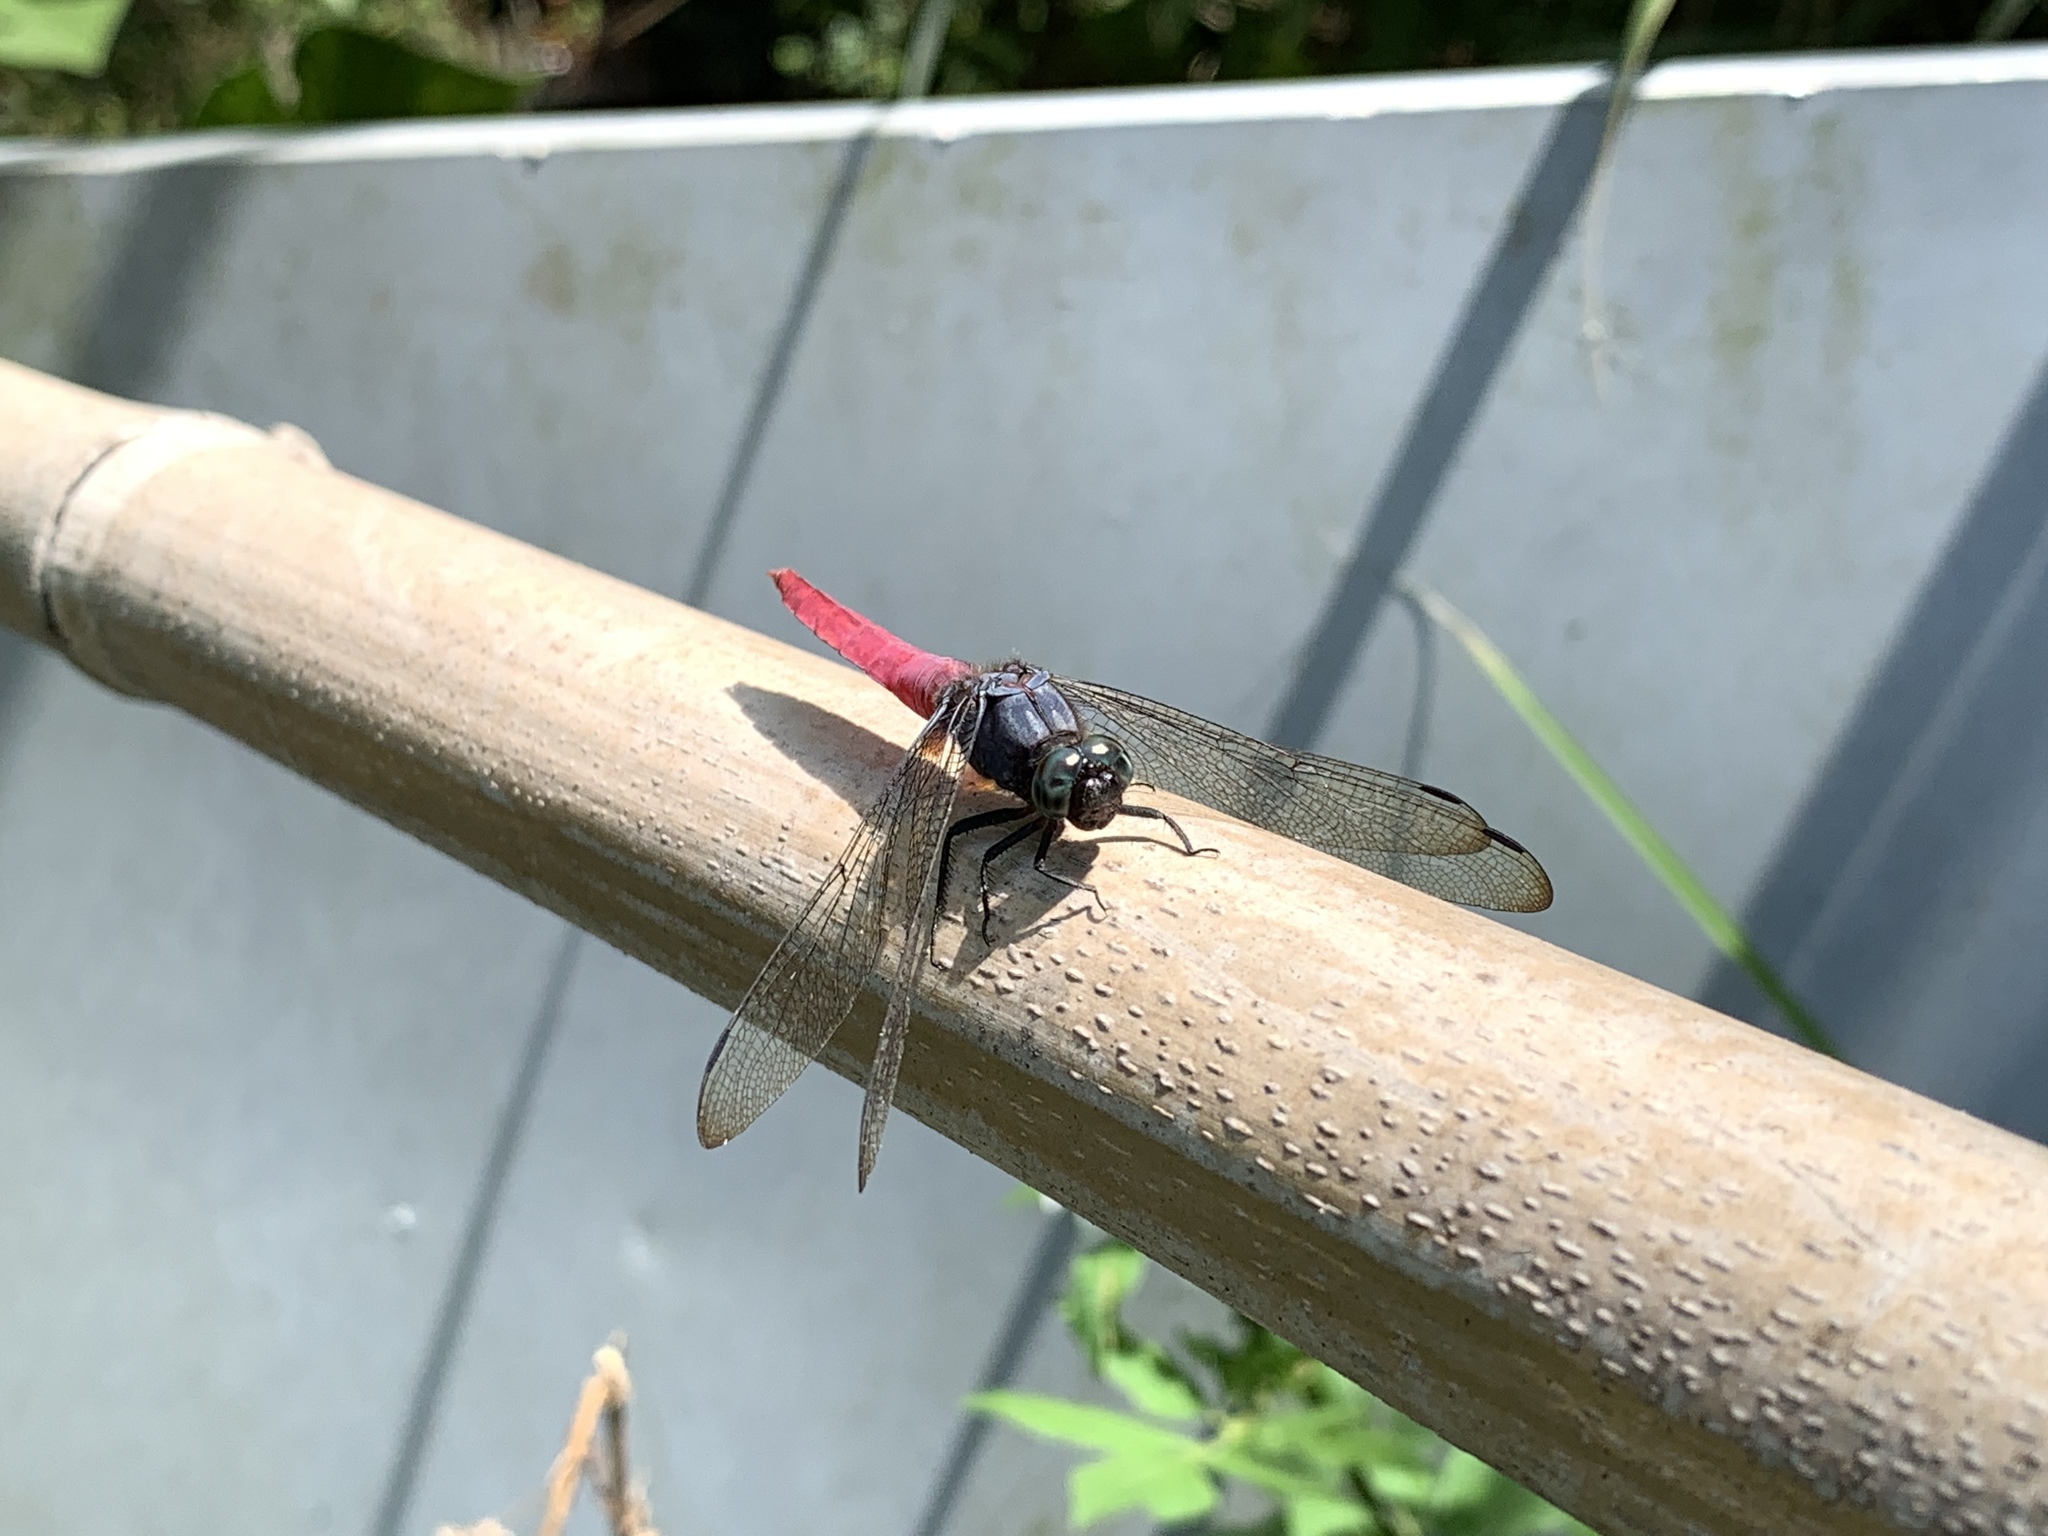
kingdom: Animalia
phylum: Arthropoda
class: Insecta
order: Odonata
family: Libellulidae
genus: Orthetrum
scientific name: Orthetrum pruinosum
